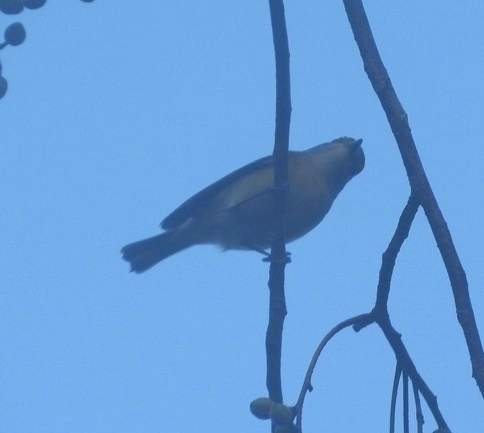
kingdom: Animalia
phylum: Chordata
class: Aves
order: Passeriformes
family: Vireonidae
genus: Vireo
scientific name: Vireo griseus
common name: White-eyed vireo
